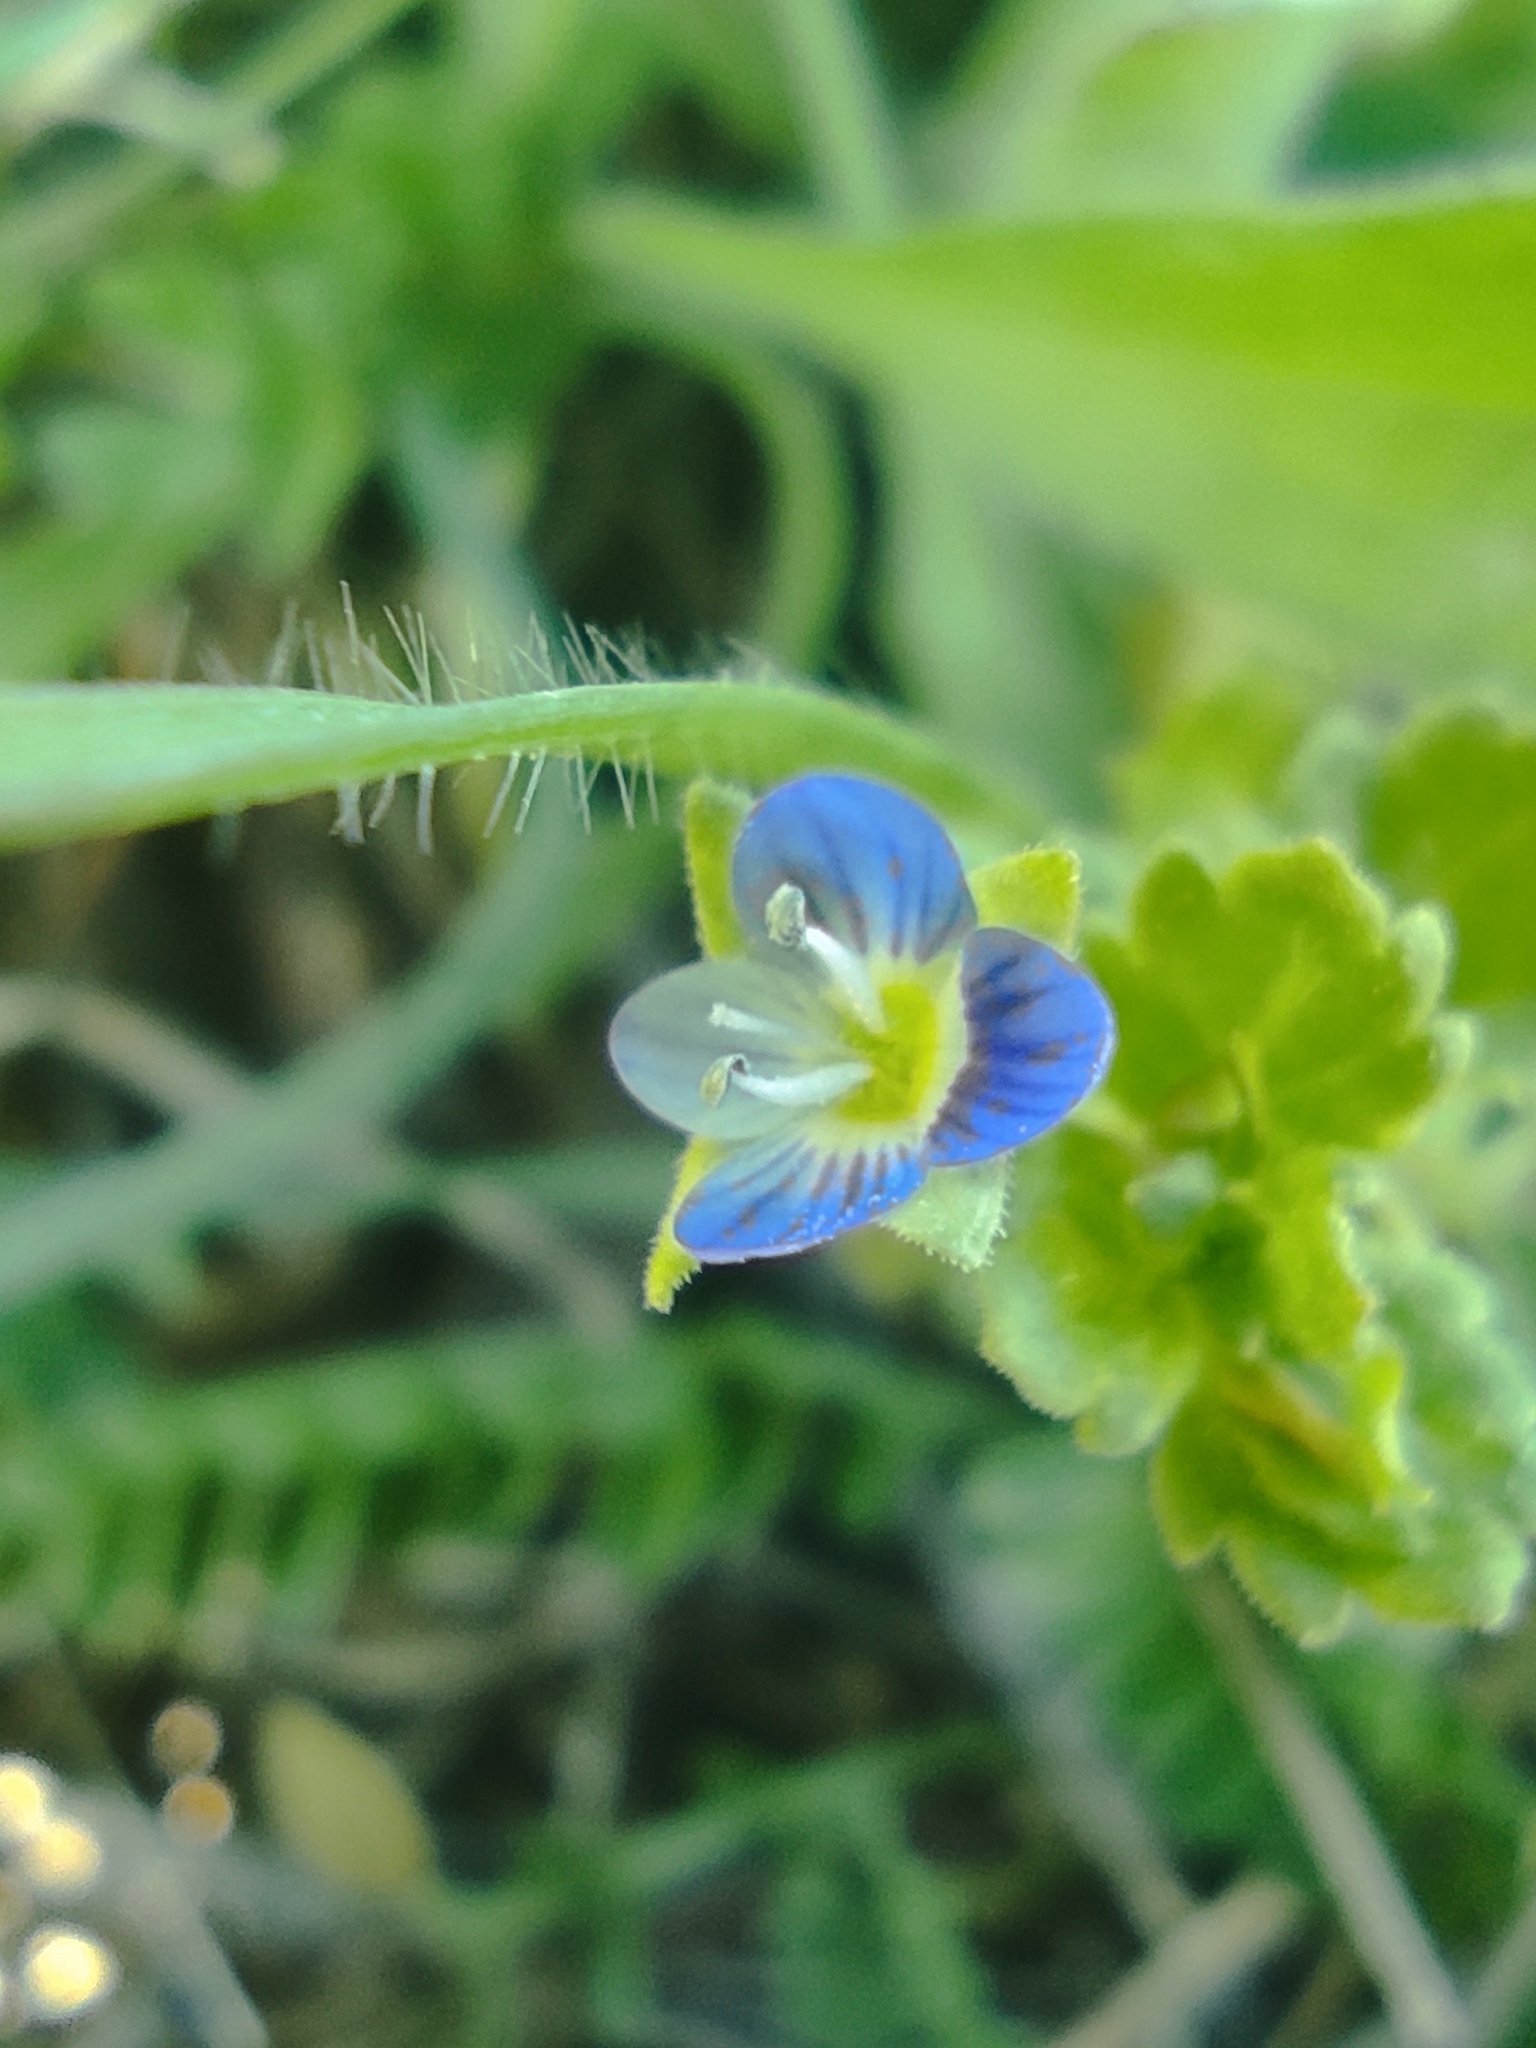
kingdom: Plantae
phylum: Tracheophyta
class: Magnoliopsida
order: Lamiales
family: Plantaginaceae
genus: Veronica
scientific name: Veronica persica
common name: Common field-speedwell
